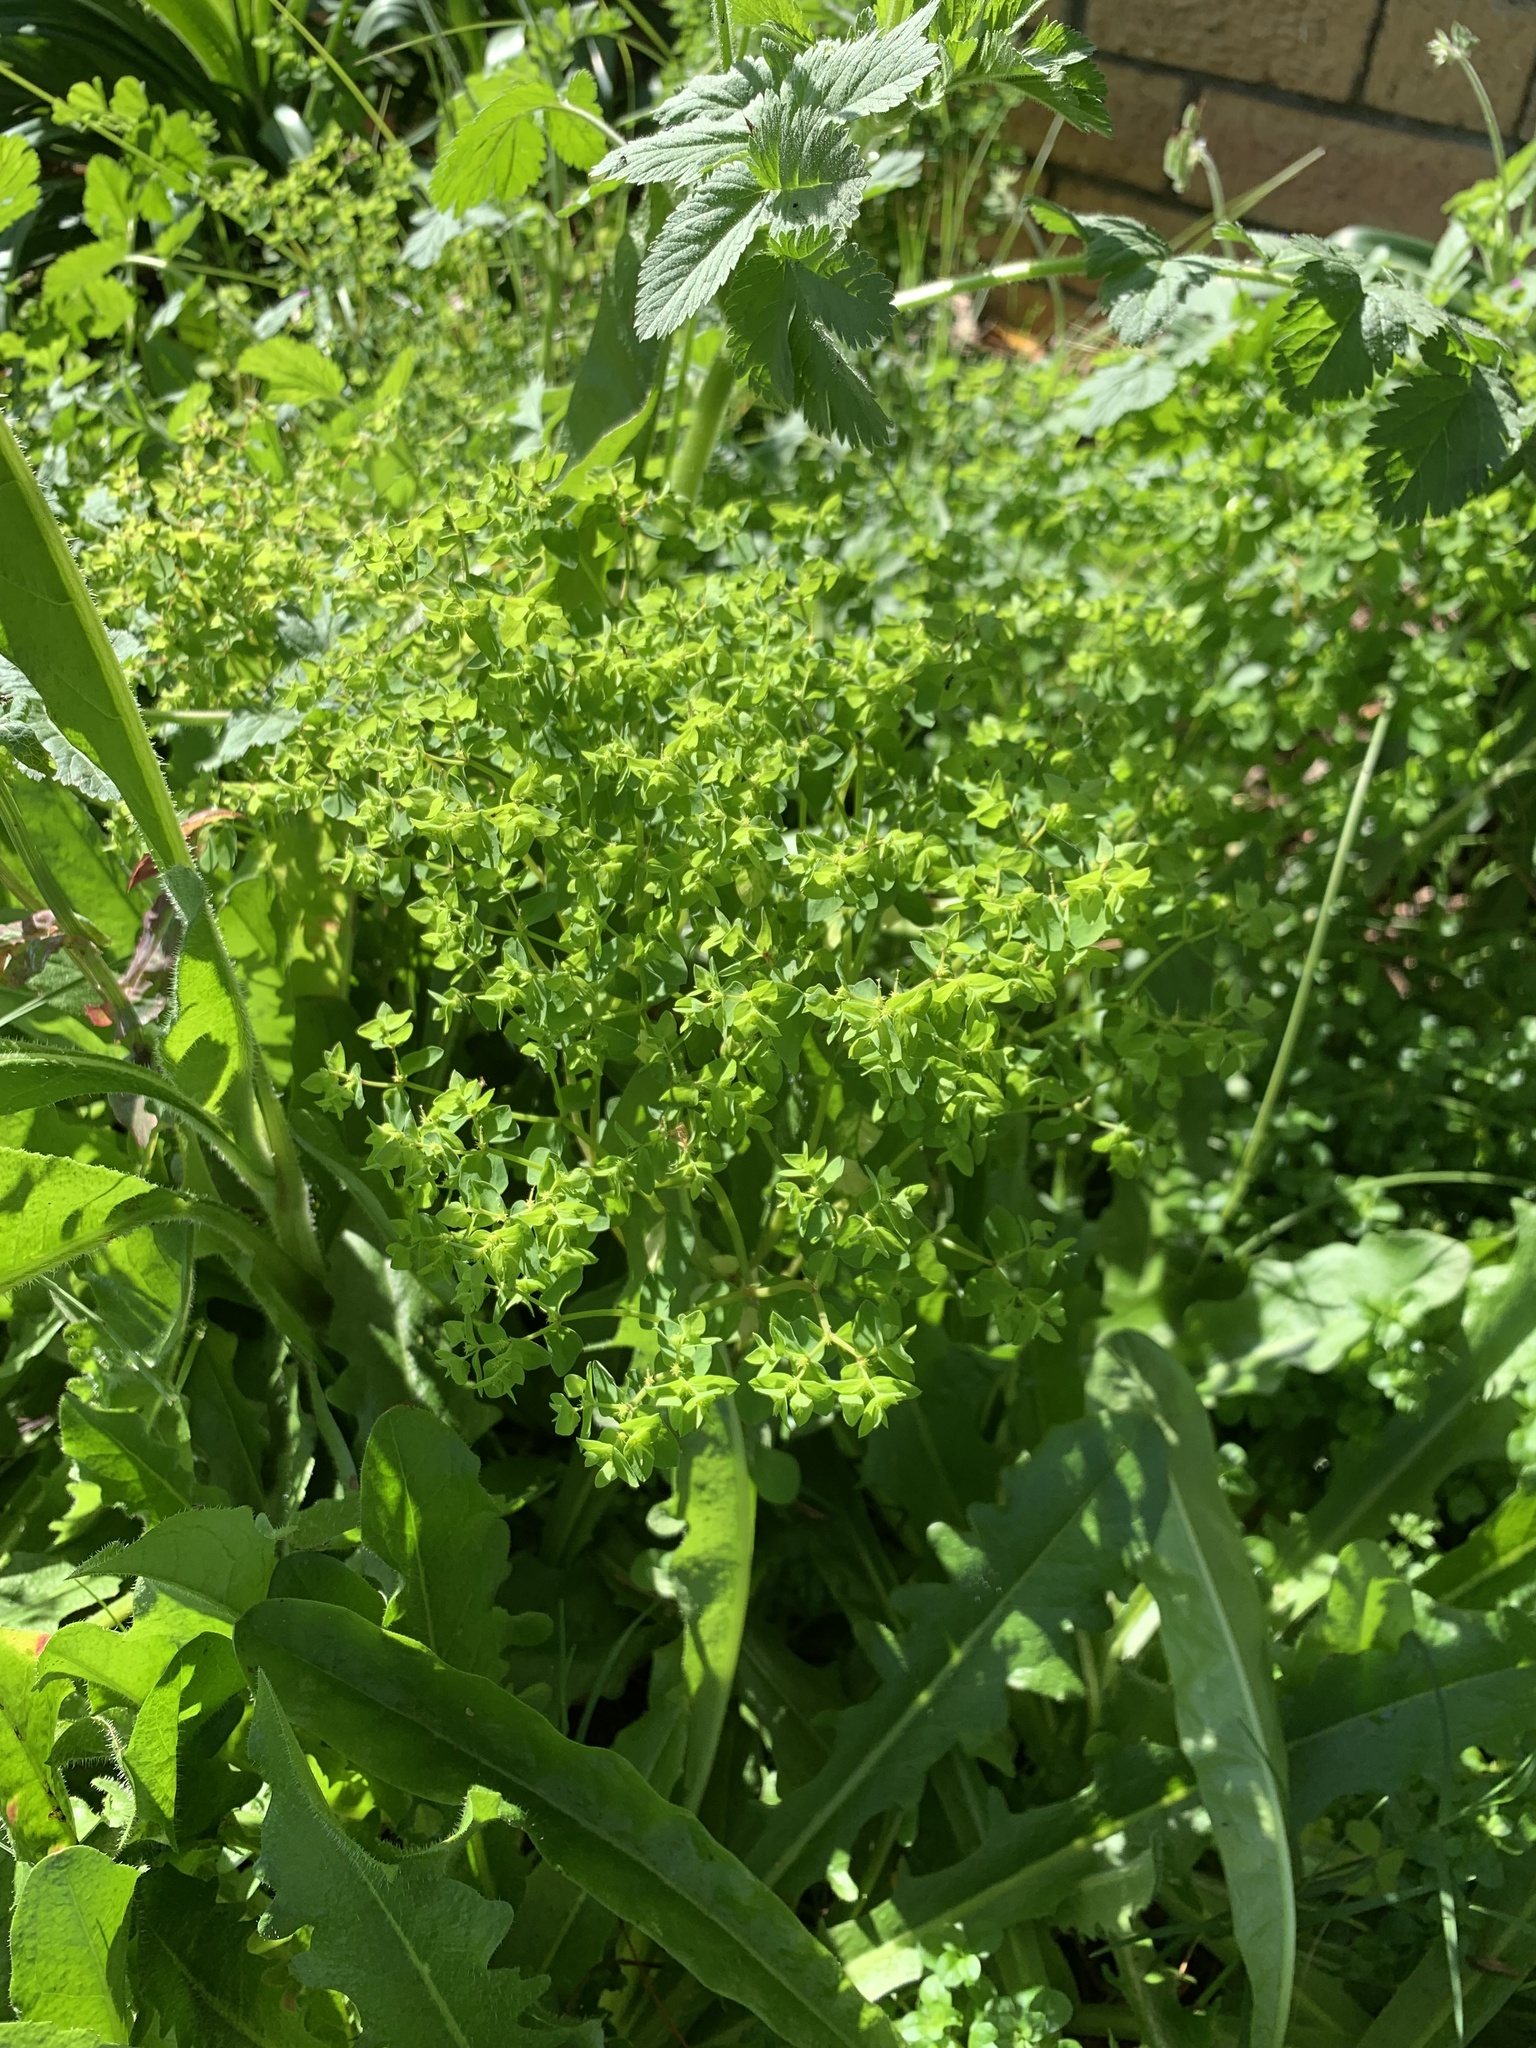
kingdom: Plantae
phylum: Tracheophyta
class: Magnoliopsida
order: Malpighiales
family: Euphorbiaceae
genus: Euphorbia
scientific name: Euphorbia peplus
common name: Petty spurge
